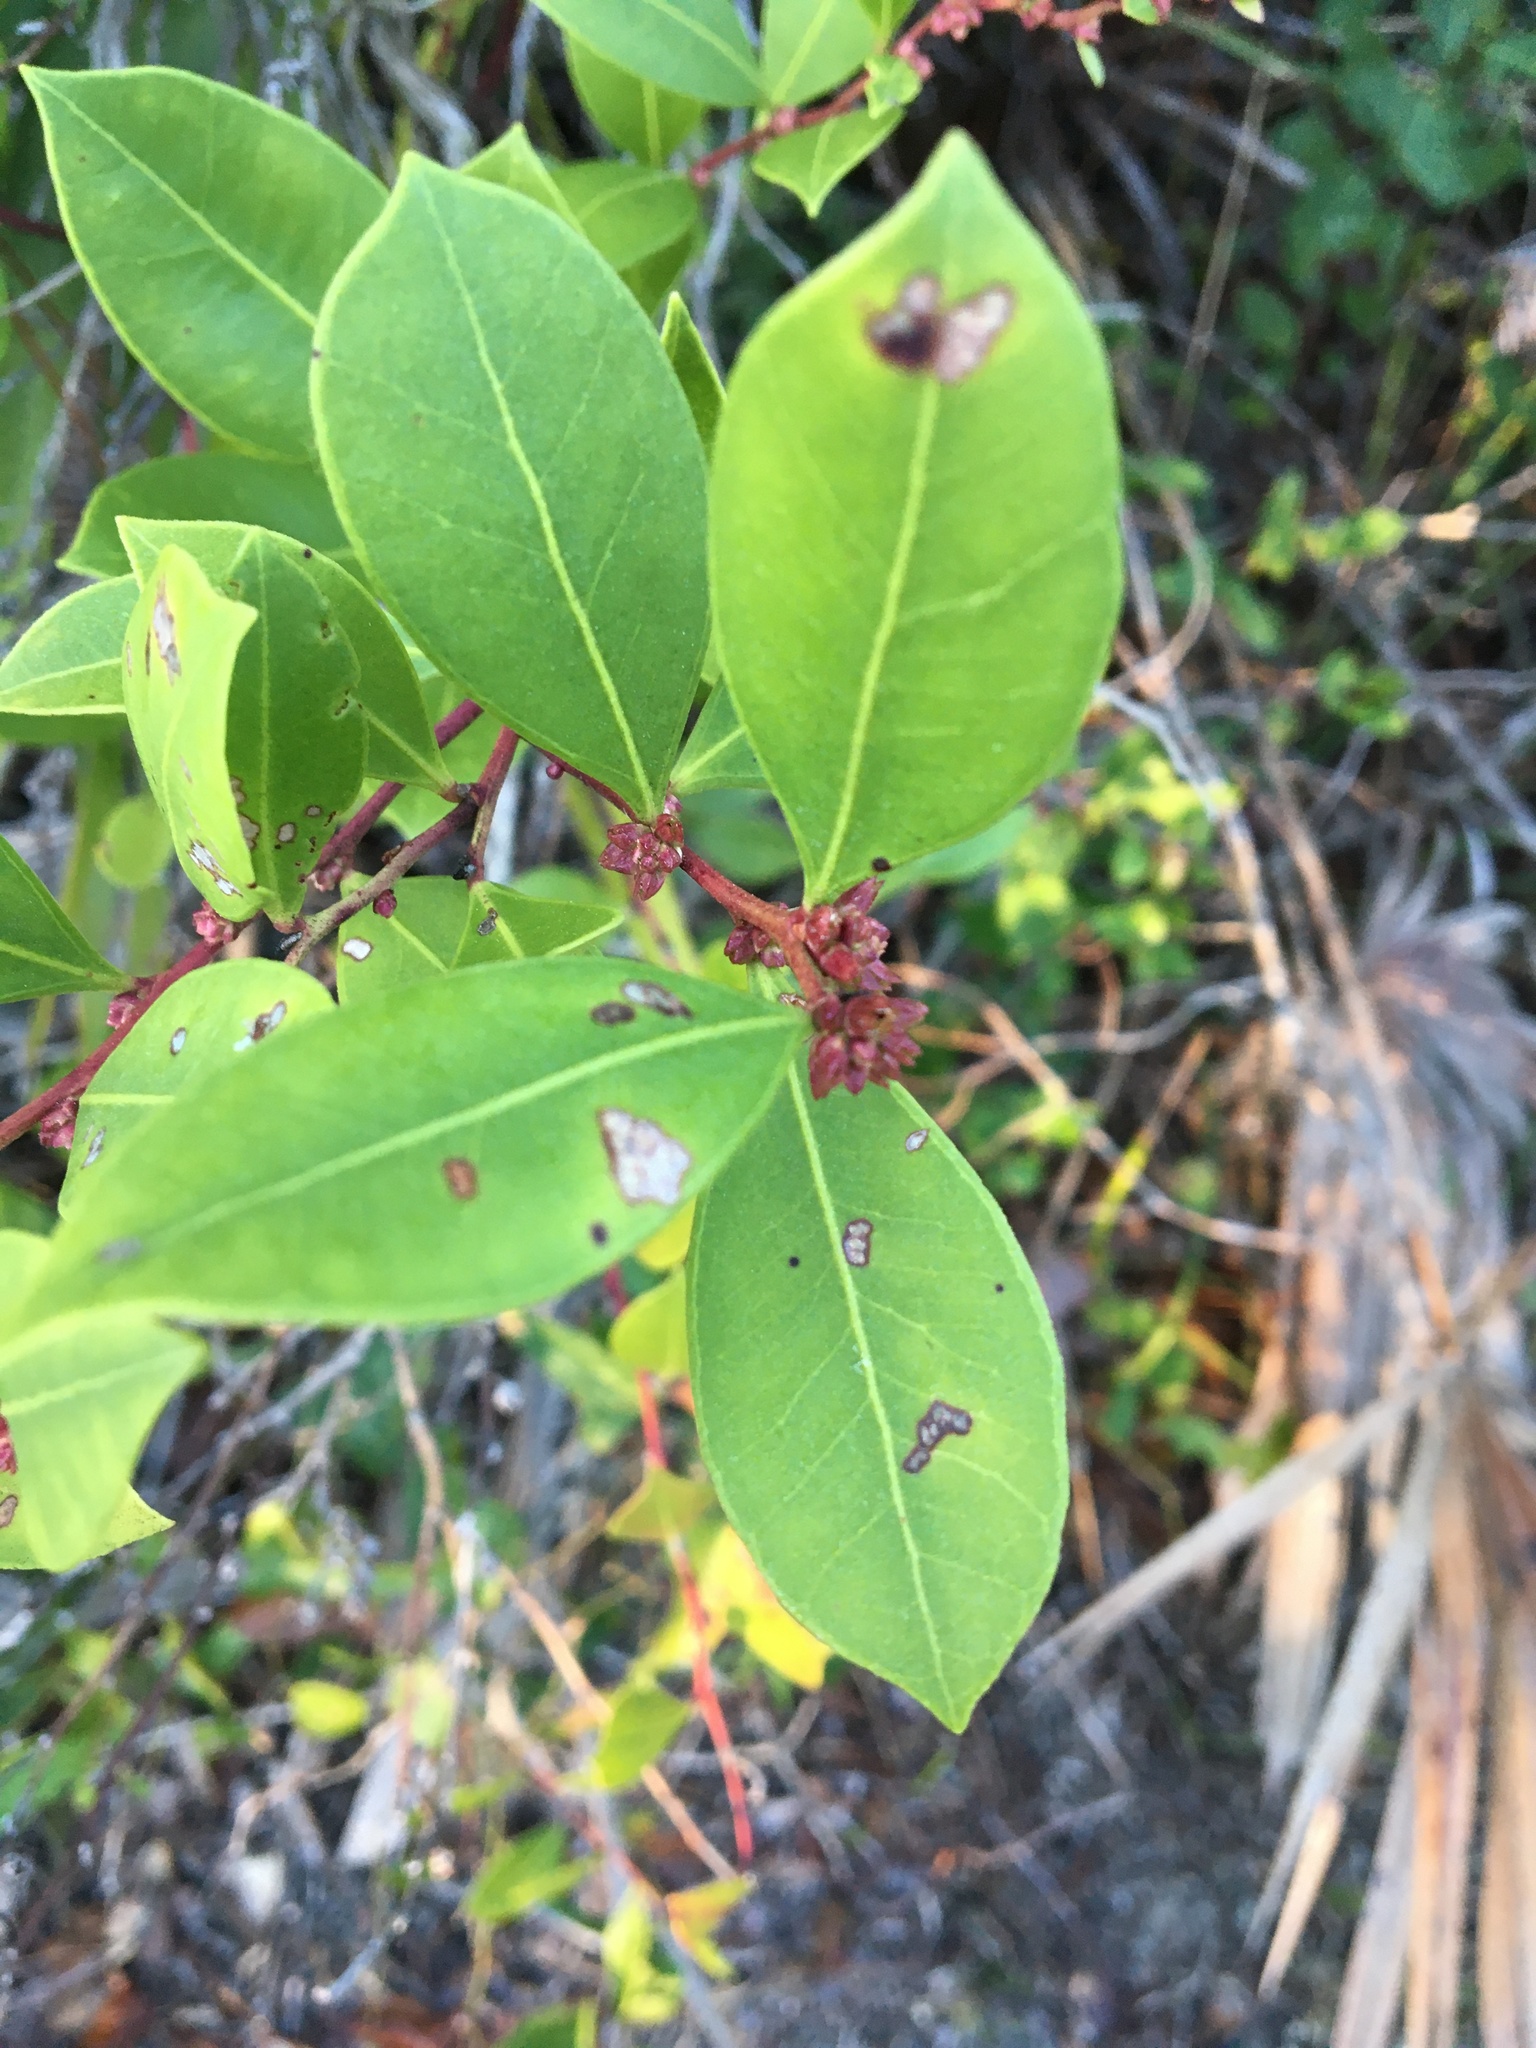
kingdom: Plantae
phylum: Tracheophyta
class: Magnoliopsida
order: Ericales
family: Ericaceae
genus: Lyonia
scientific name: Lyonia lucida
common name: Fetterbush
